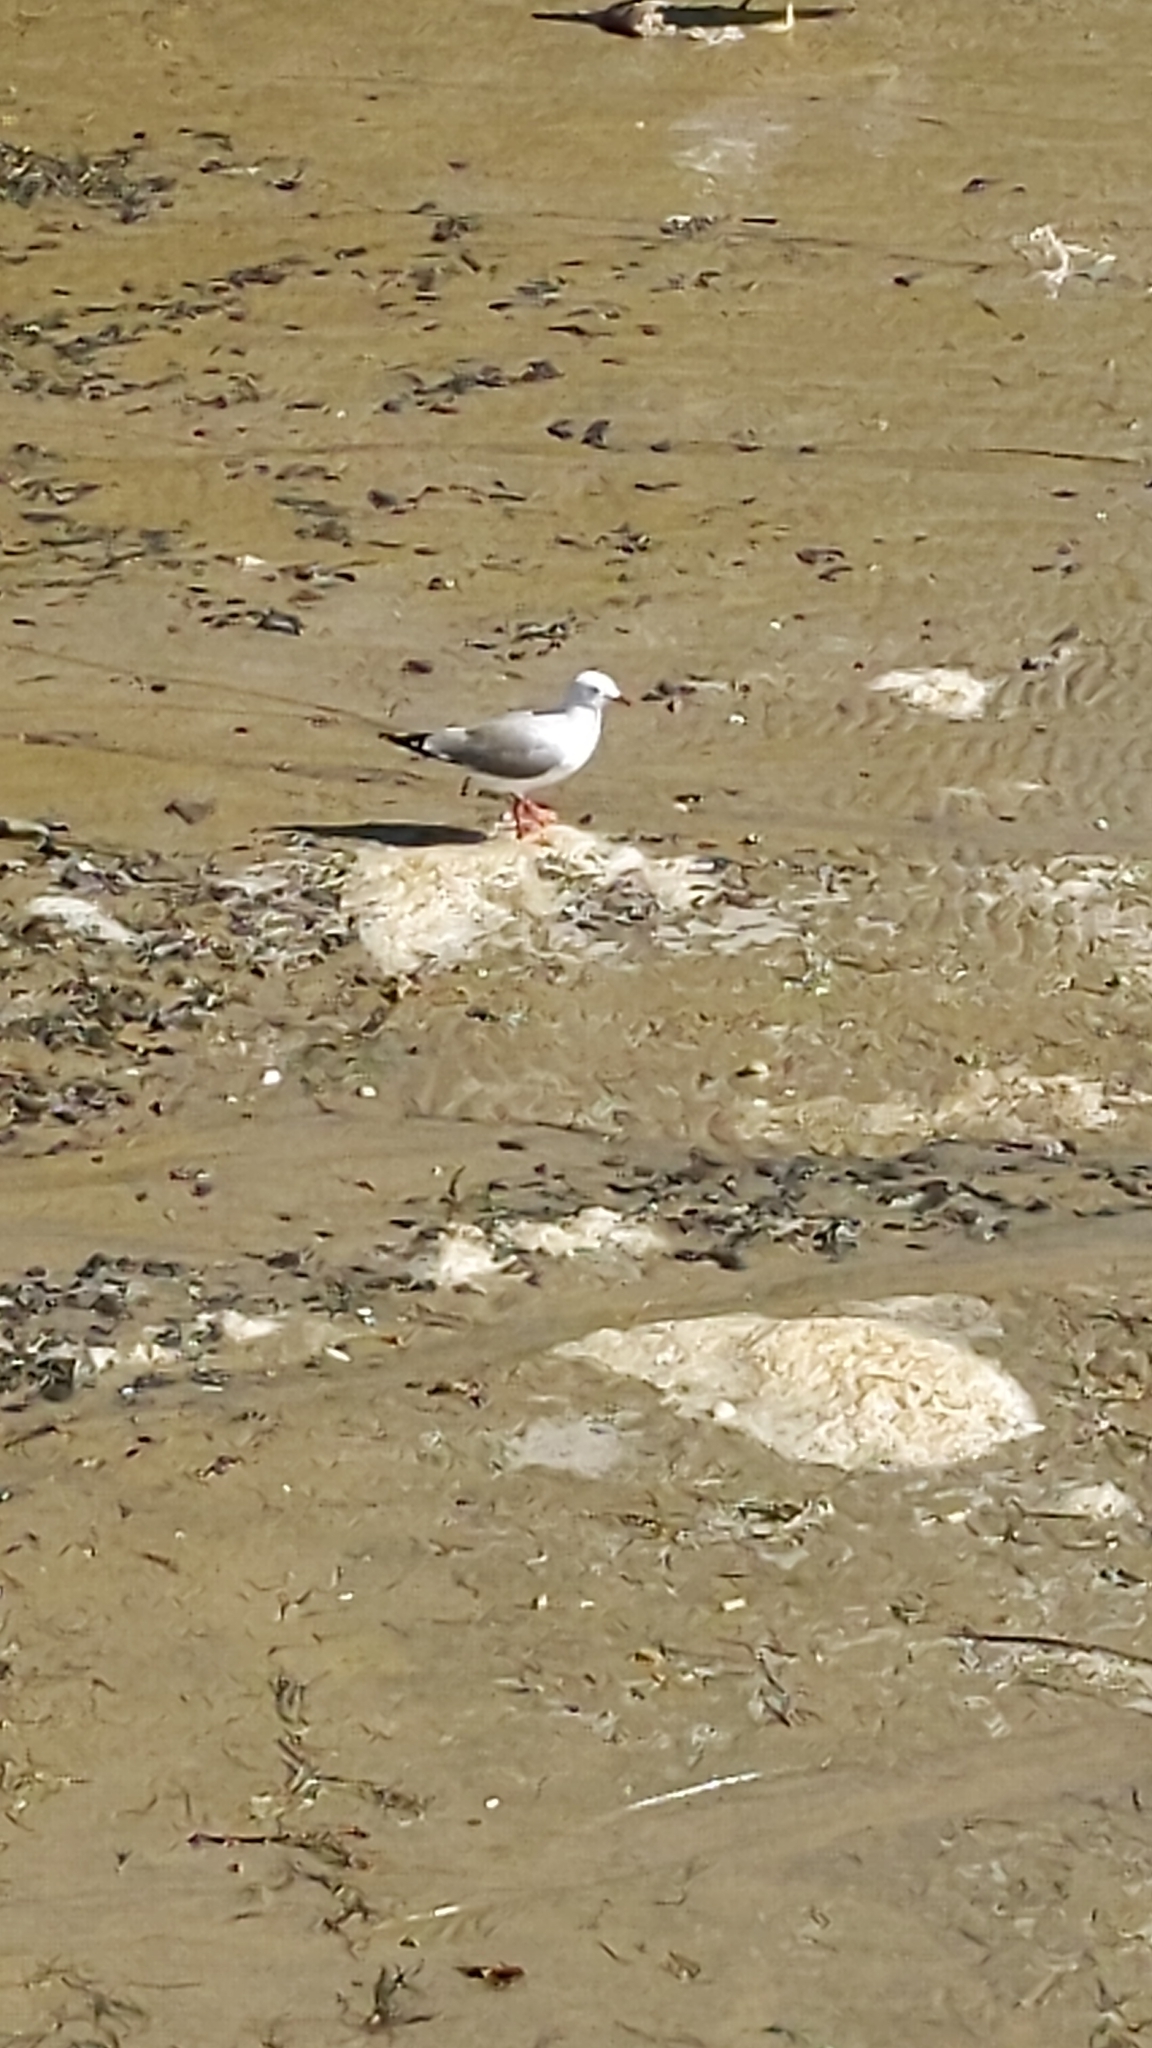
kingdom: Animalia
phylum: Chordata
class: Aves
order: Charadriiformes
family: Laridae
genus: Chroicocephalus
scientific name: Chroicocephalus novaehollandiae
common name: Silver gull
